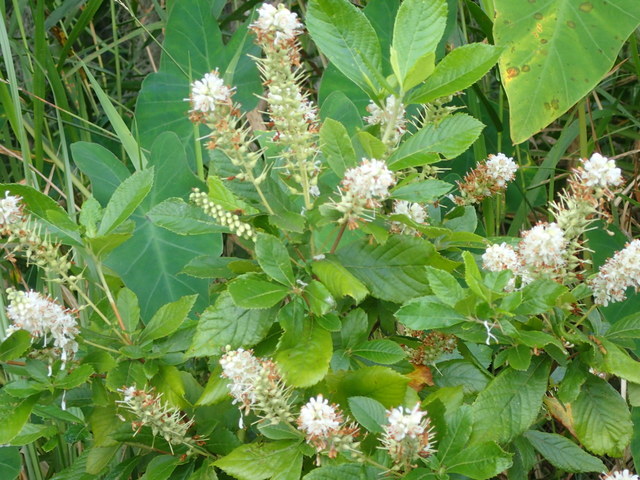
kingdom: Plantae
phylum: Tracheophyta
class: Magnoliopsida
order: Ericales
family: Clethraceae
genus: Clethra
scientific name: Clethra alnifolia
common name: Sweet pepperbush
